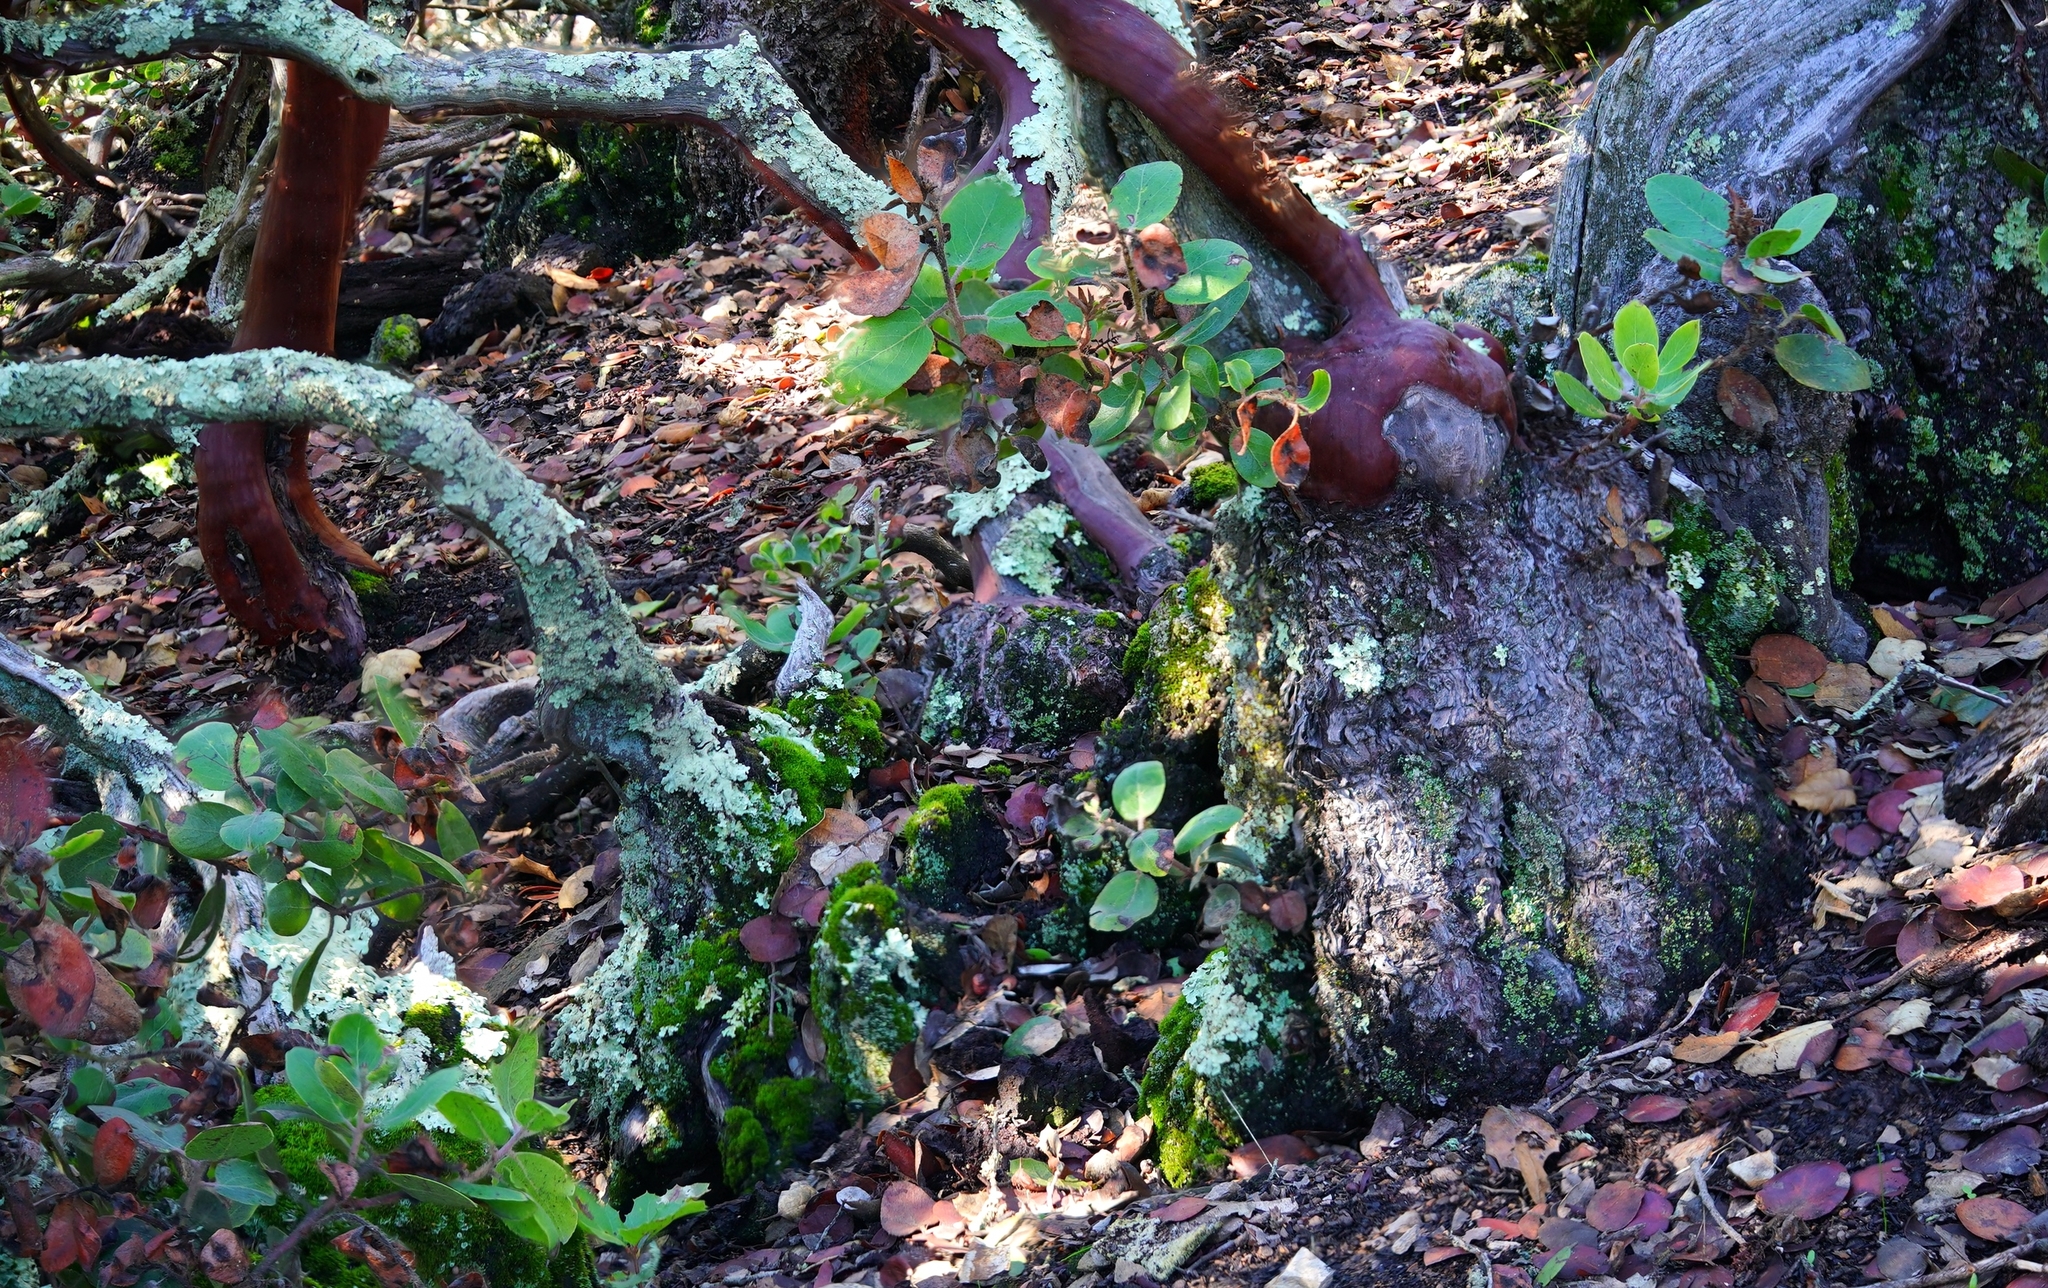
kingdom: Plantae
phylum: Tracheophyta
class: Magnoliopsida
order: Ericales
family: Ericaceae
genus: Arctostaphylos
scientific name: Arctostaphylos crustacea
